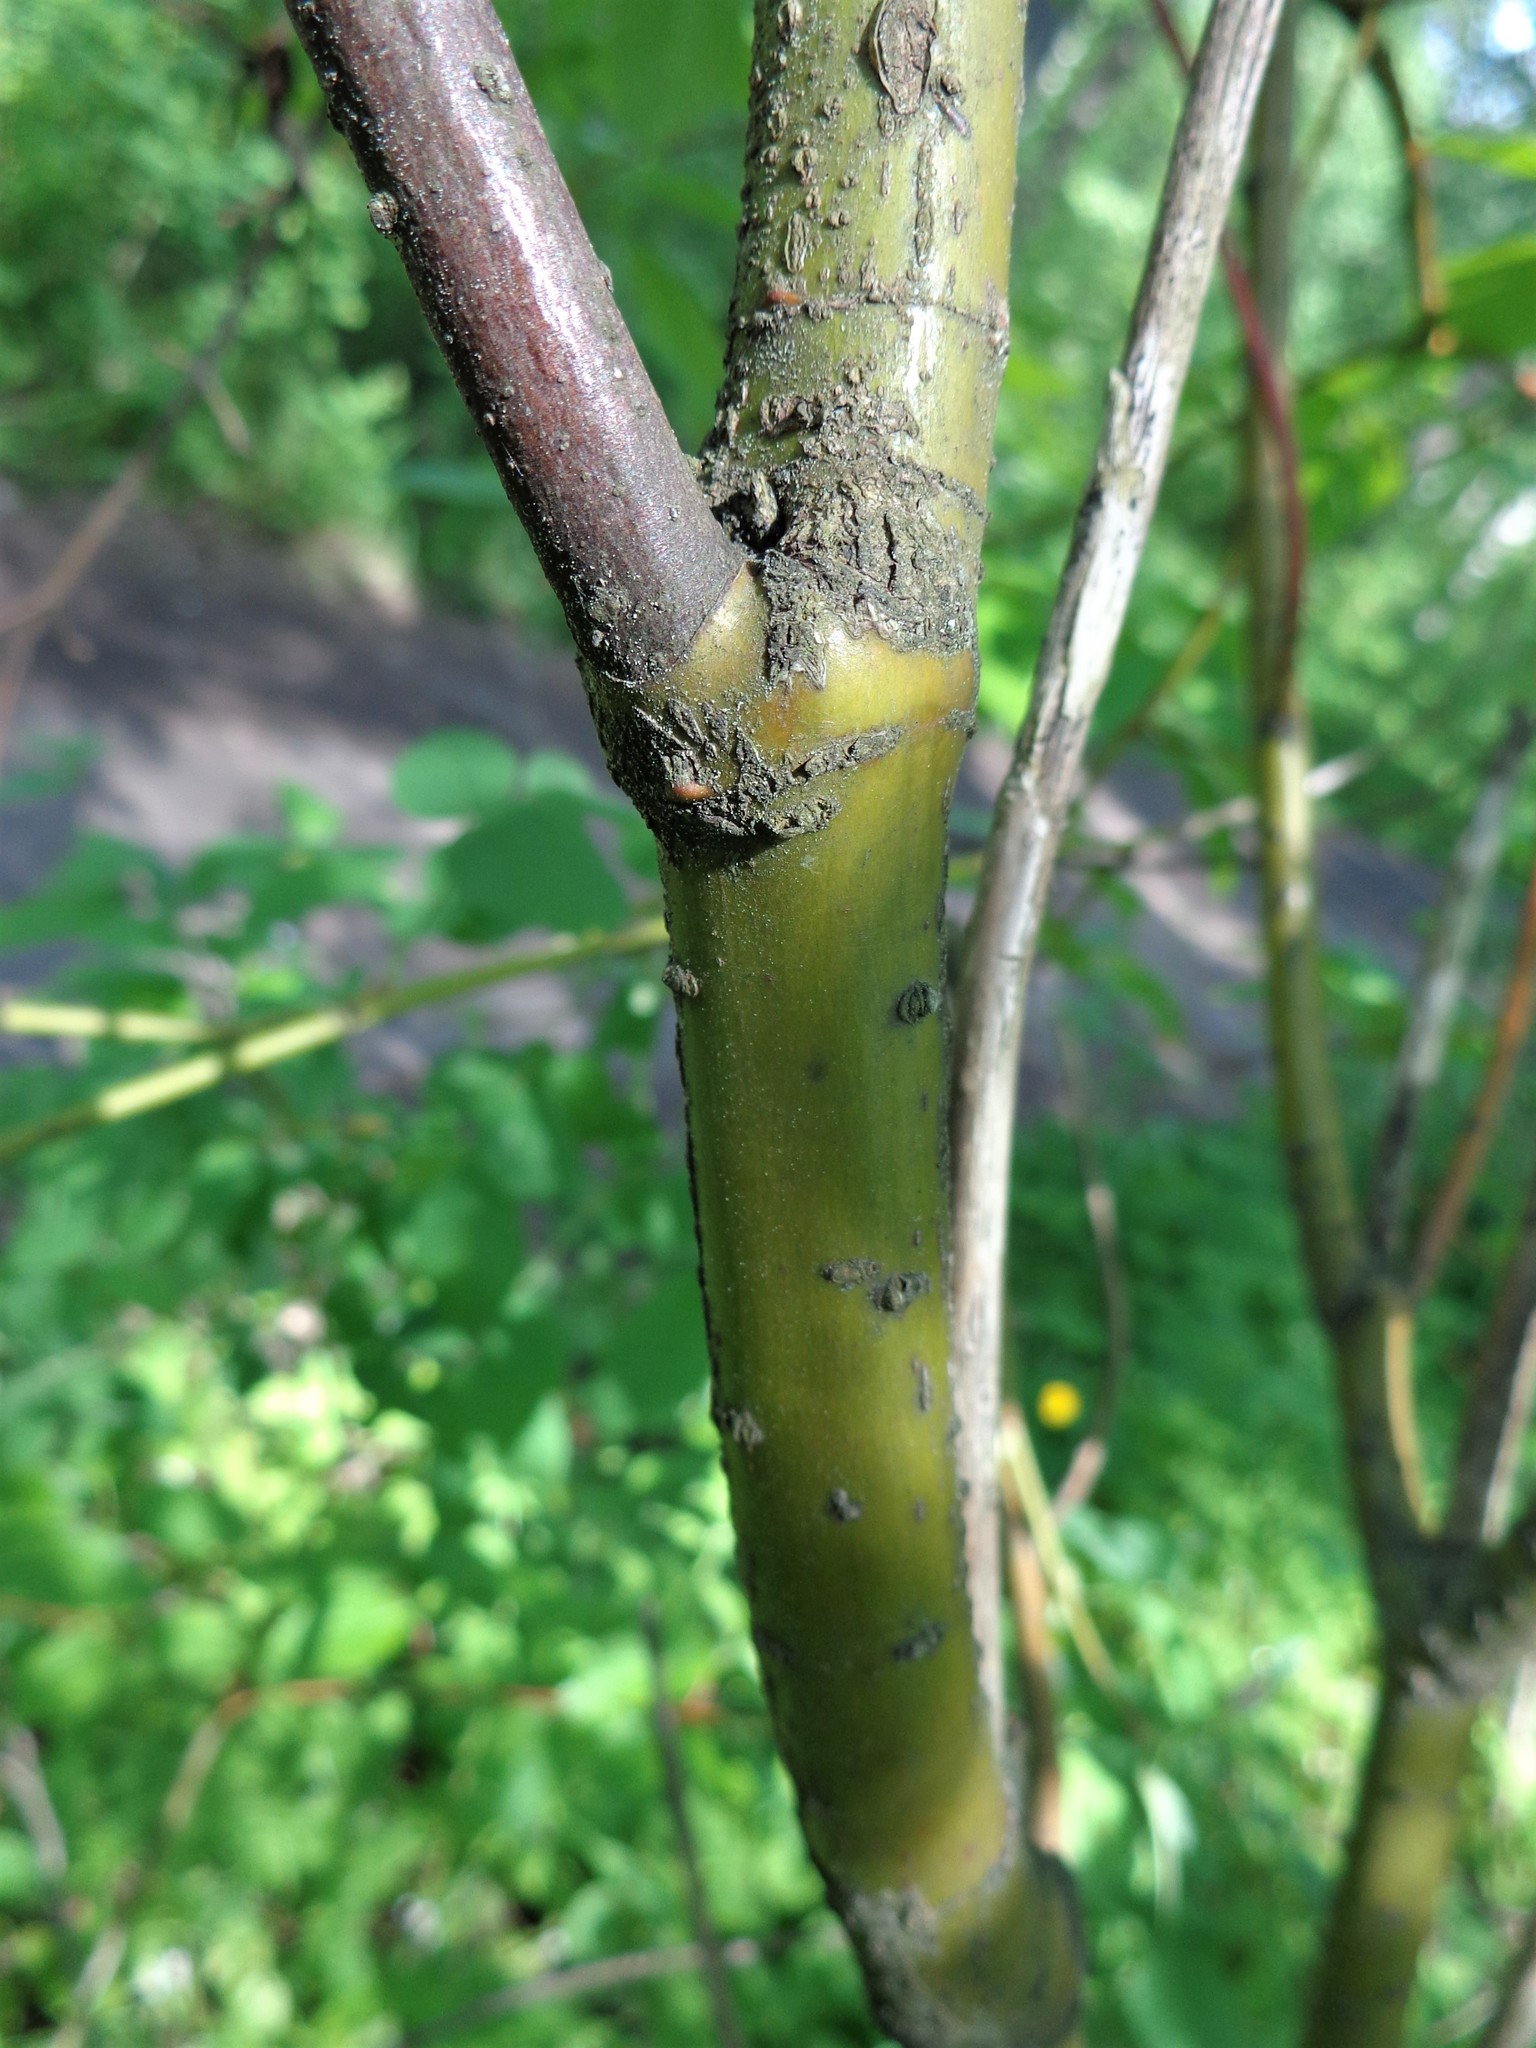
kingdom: Plantae
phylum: Tracheophyta
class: Magnoliopsida
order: Cornales
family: Cornaceae
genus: Cornus
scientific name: Cornus sericea
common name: Red-osier dogwood
